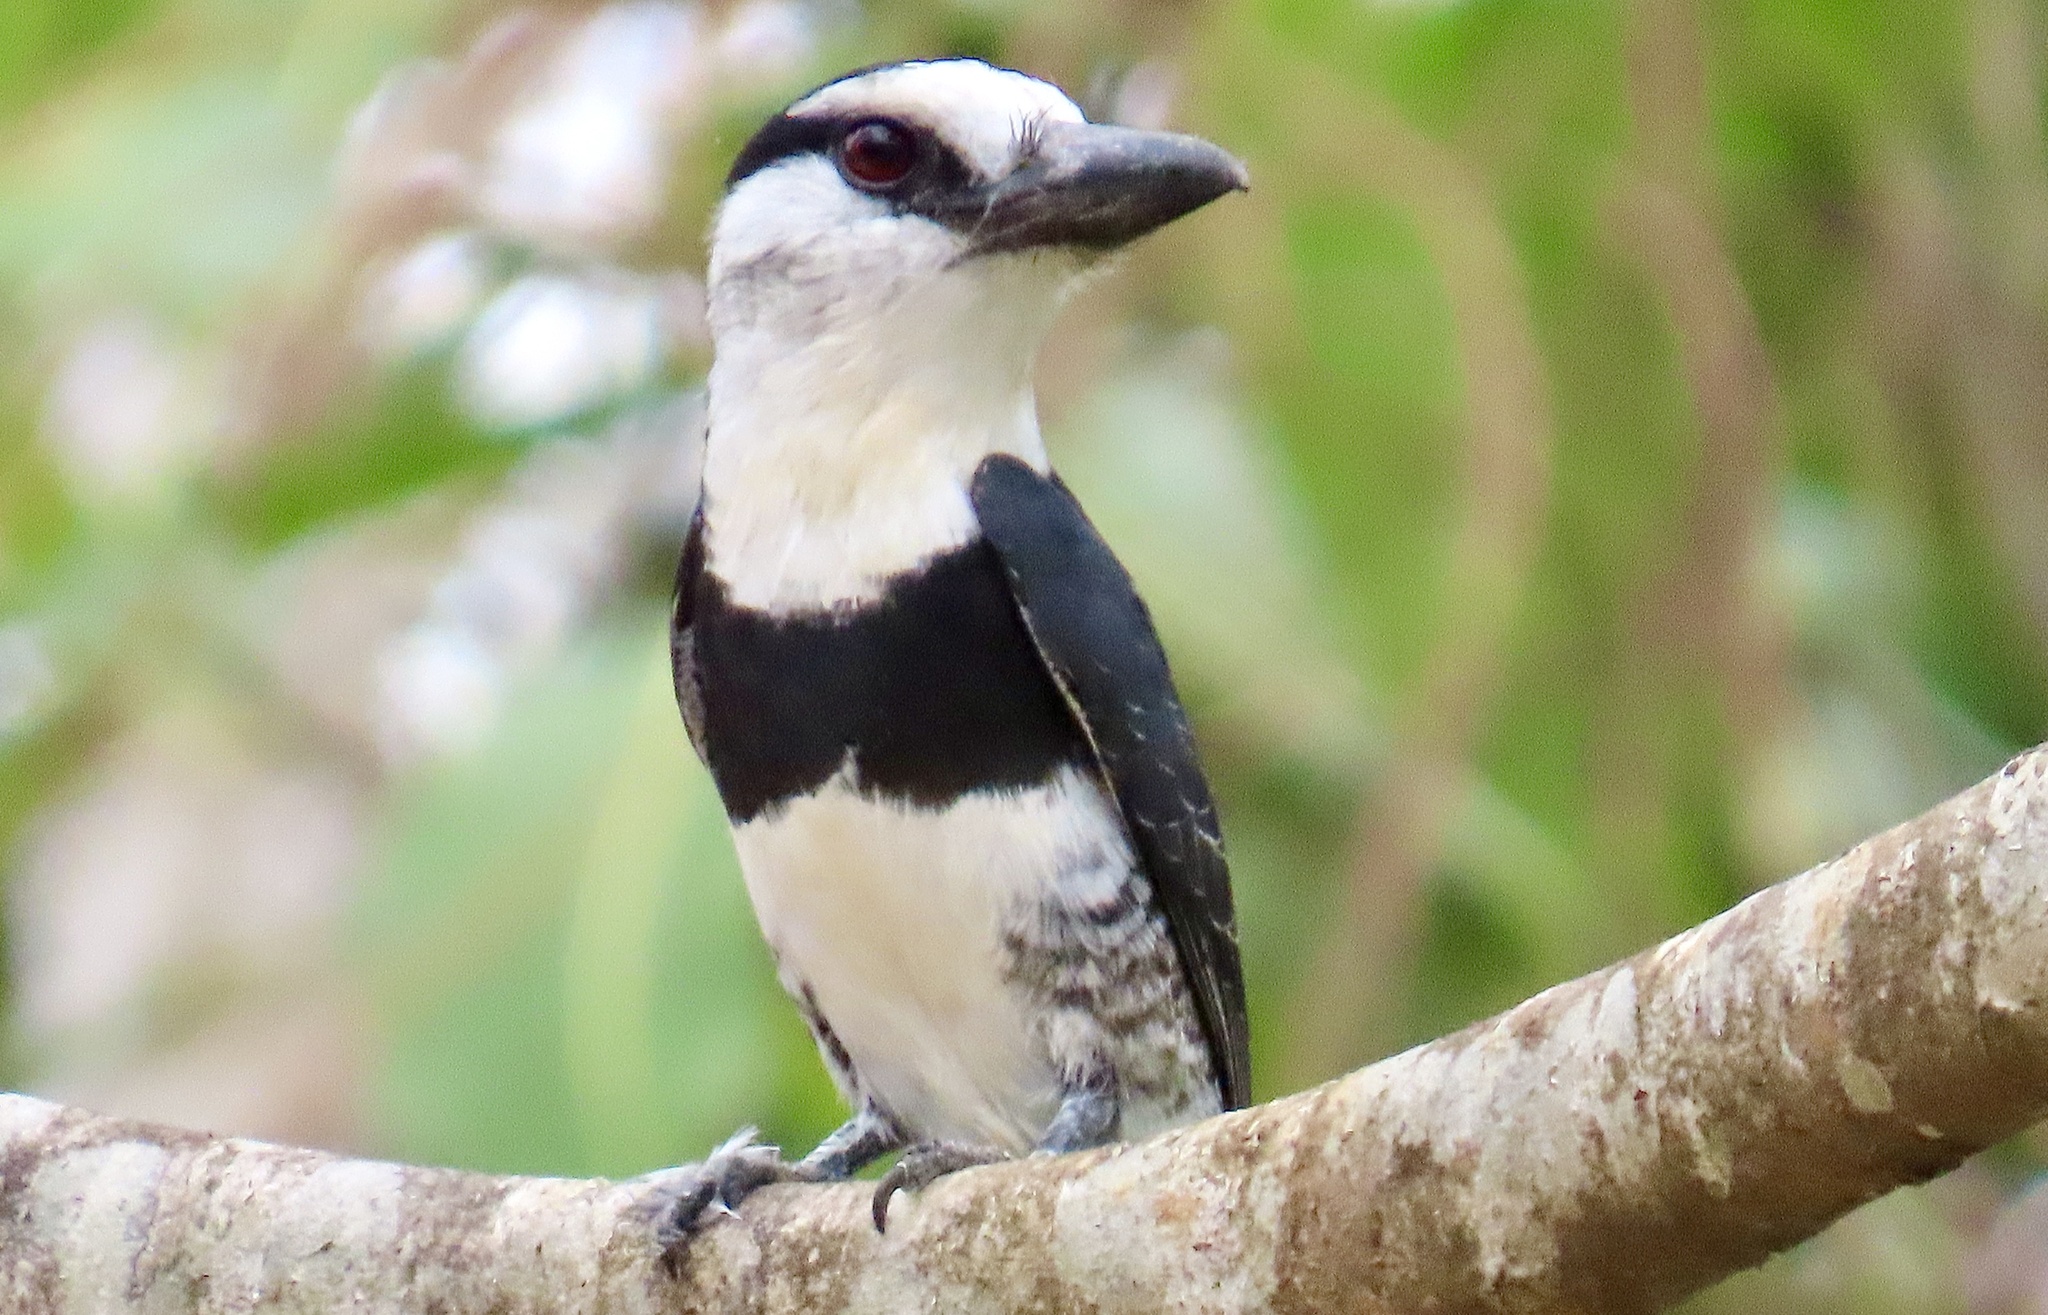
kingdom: Animalia
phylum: Chordata
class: Aves
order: Piciformes
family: Bucconidae
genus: Notharchus
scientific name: Notharchus hyperrhynchus
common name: White-necked puffbird
